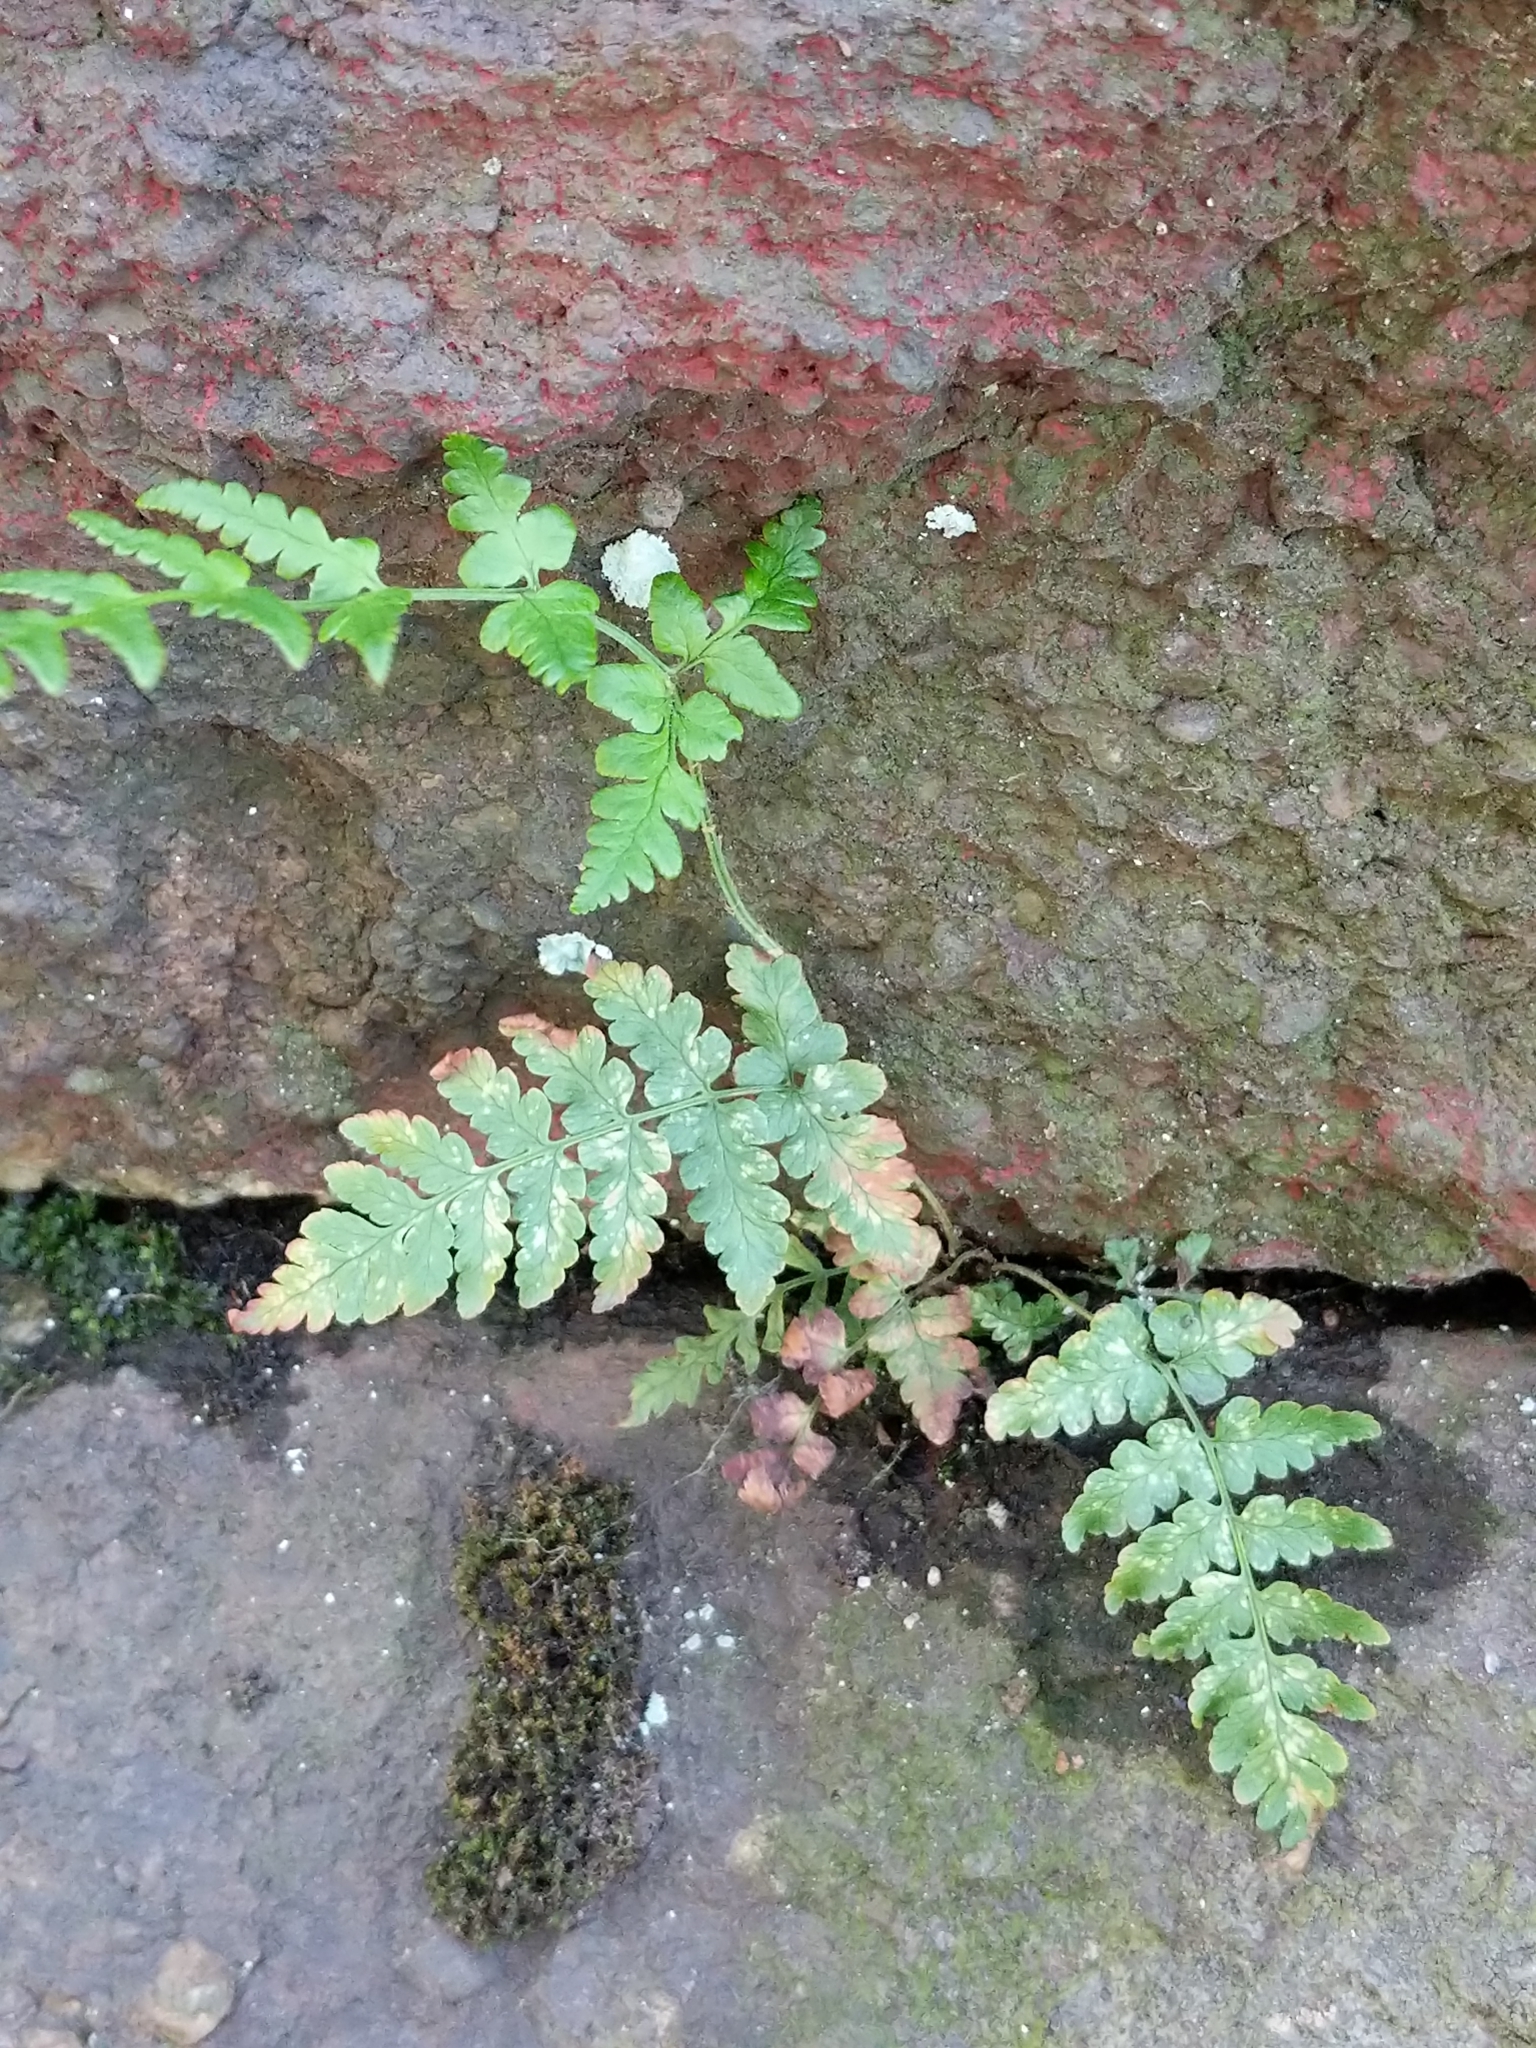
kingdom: Plantae
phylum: Tracheophyta
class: Polypodiopsida
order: Polypodiales
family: Dryopteridaceae
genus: Dryopteris
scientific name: Dryopteris marginalis
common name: Marginal wood fern
